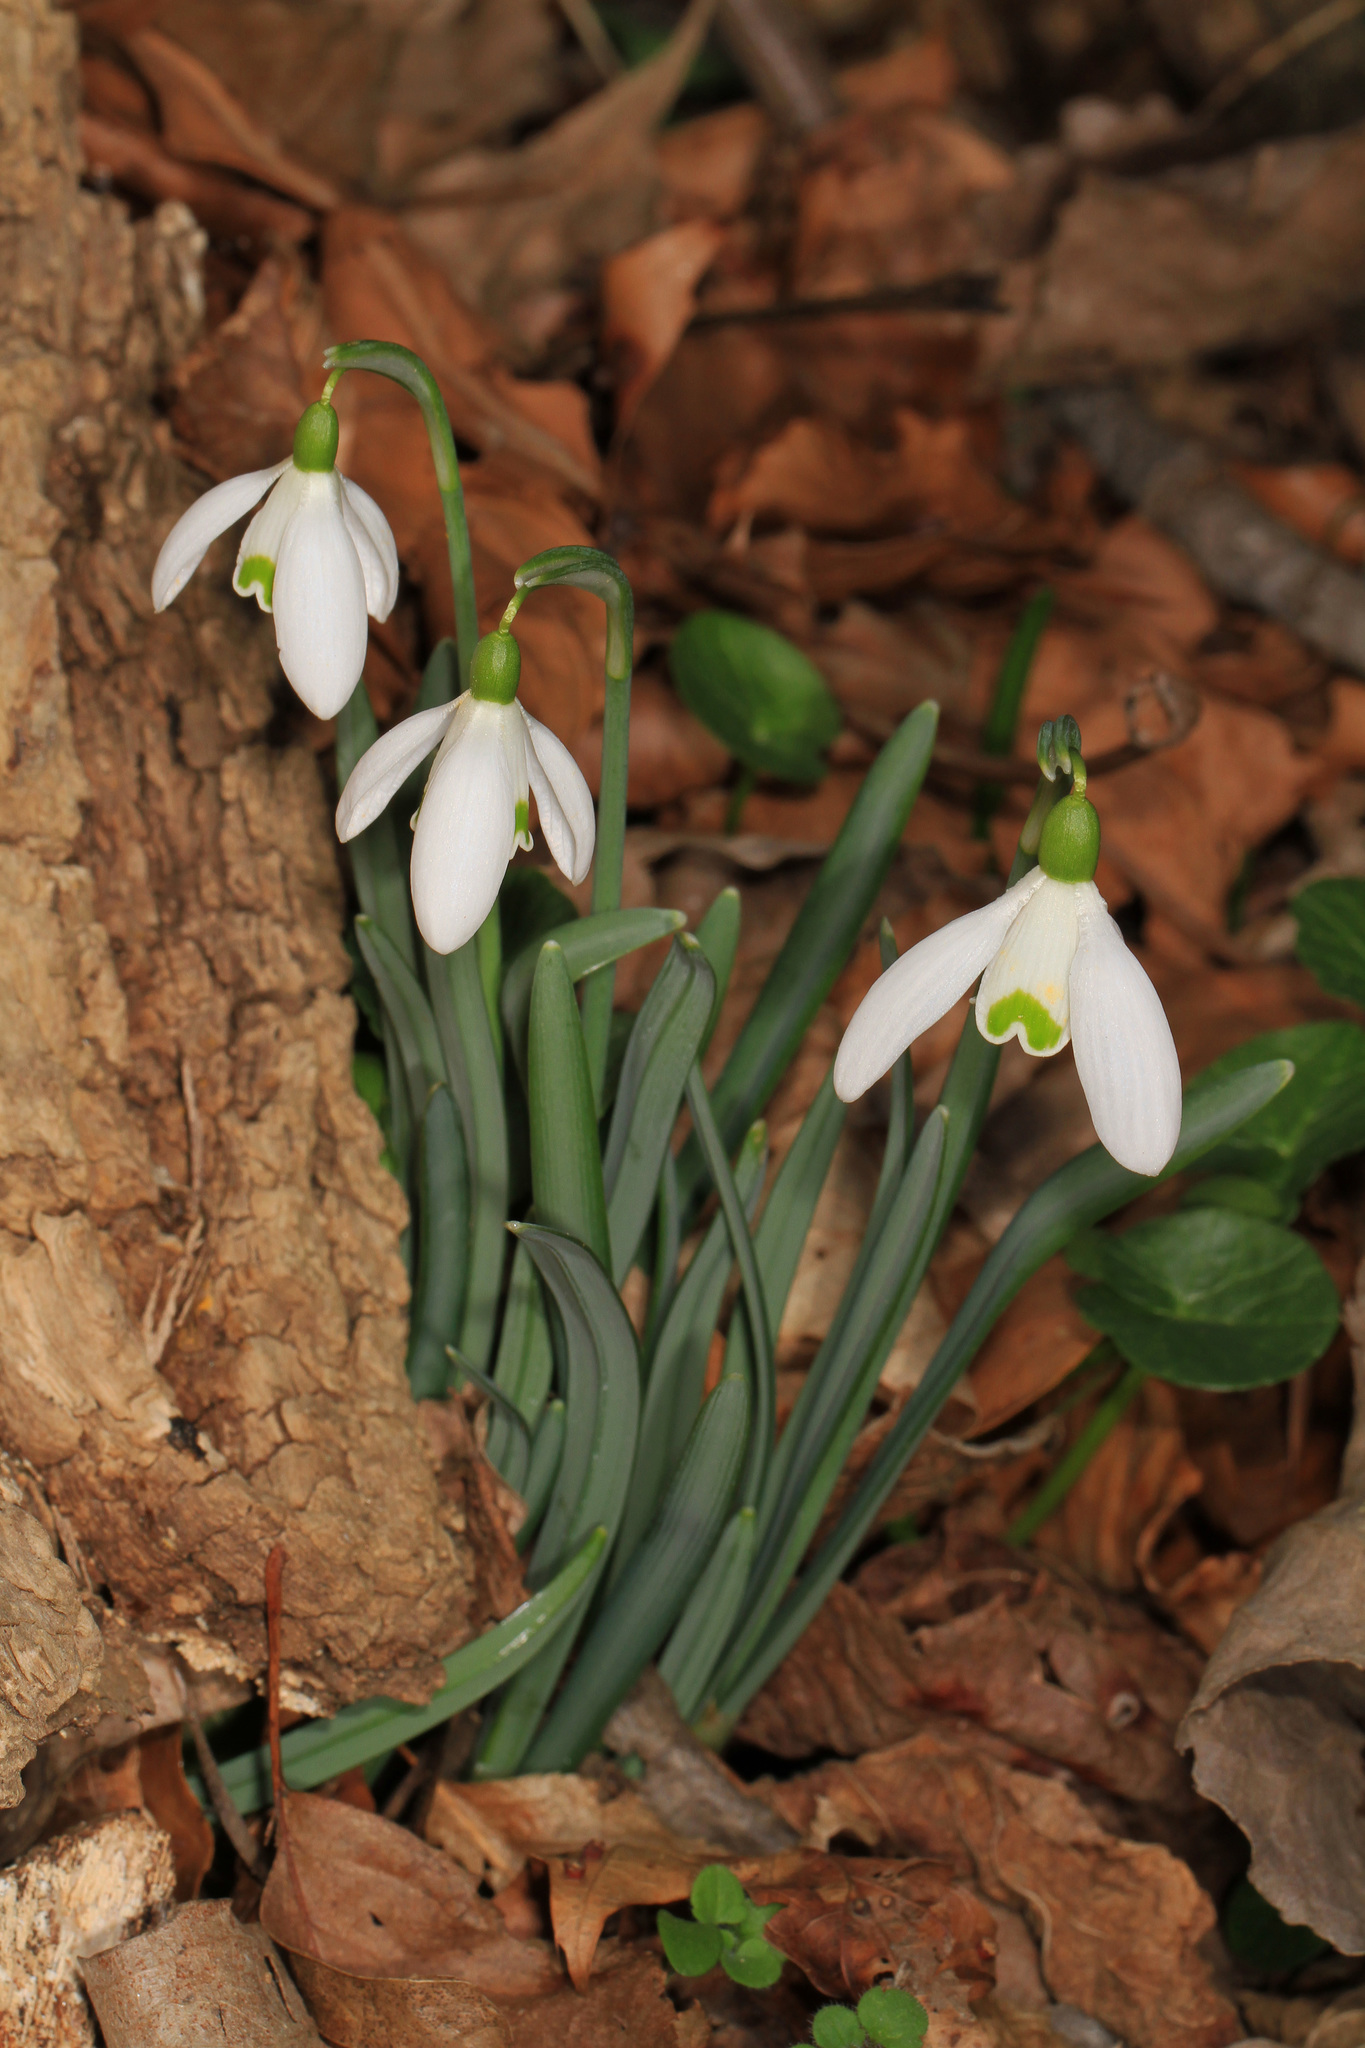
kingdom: Plantae
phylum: Tracheophyta
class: Liliopsida
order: Asparagales
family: Amaryllidaceae
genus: Galanthus
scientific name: Galanthus nivalis
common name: Snowdrop
